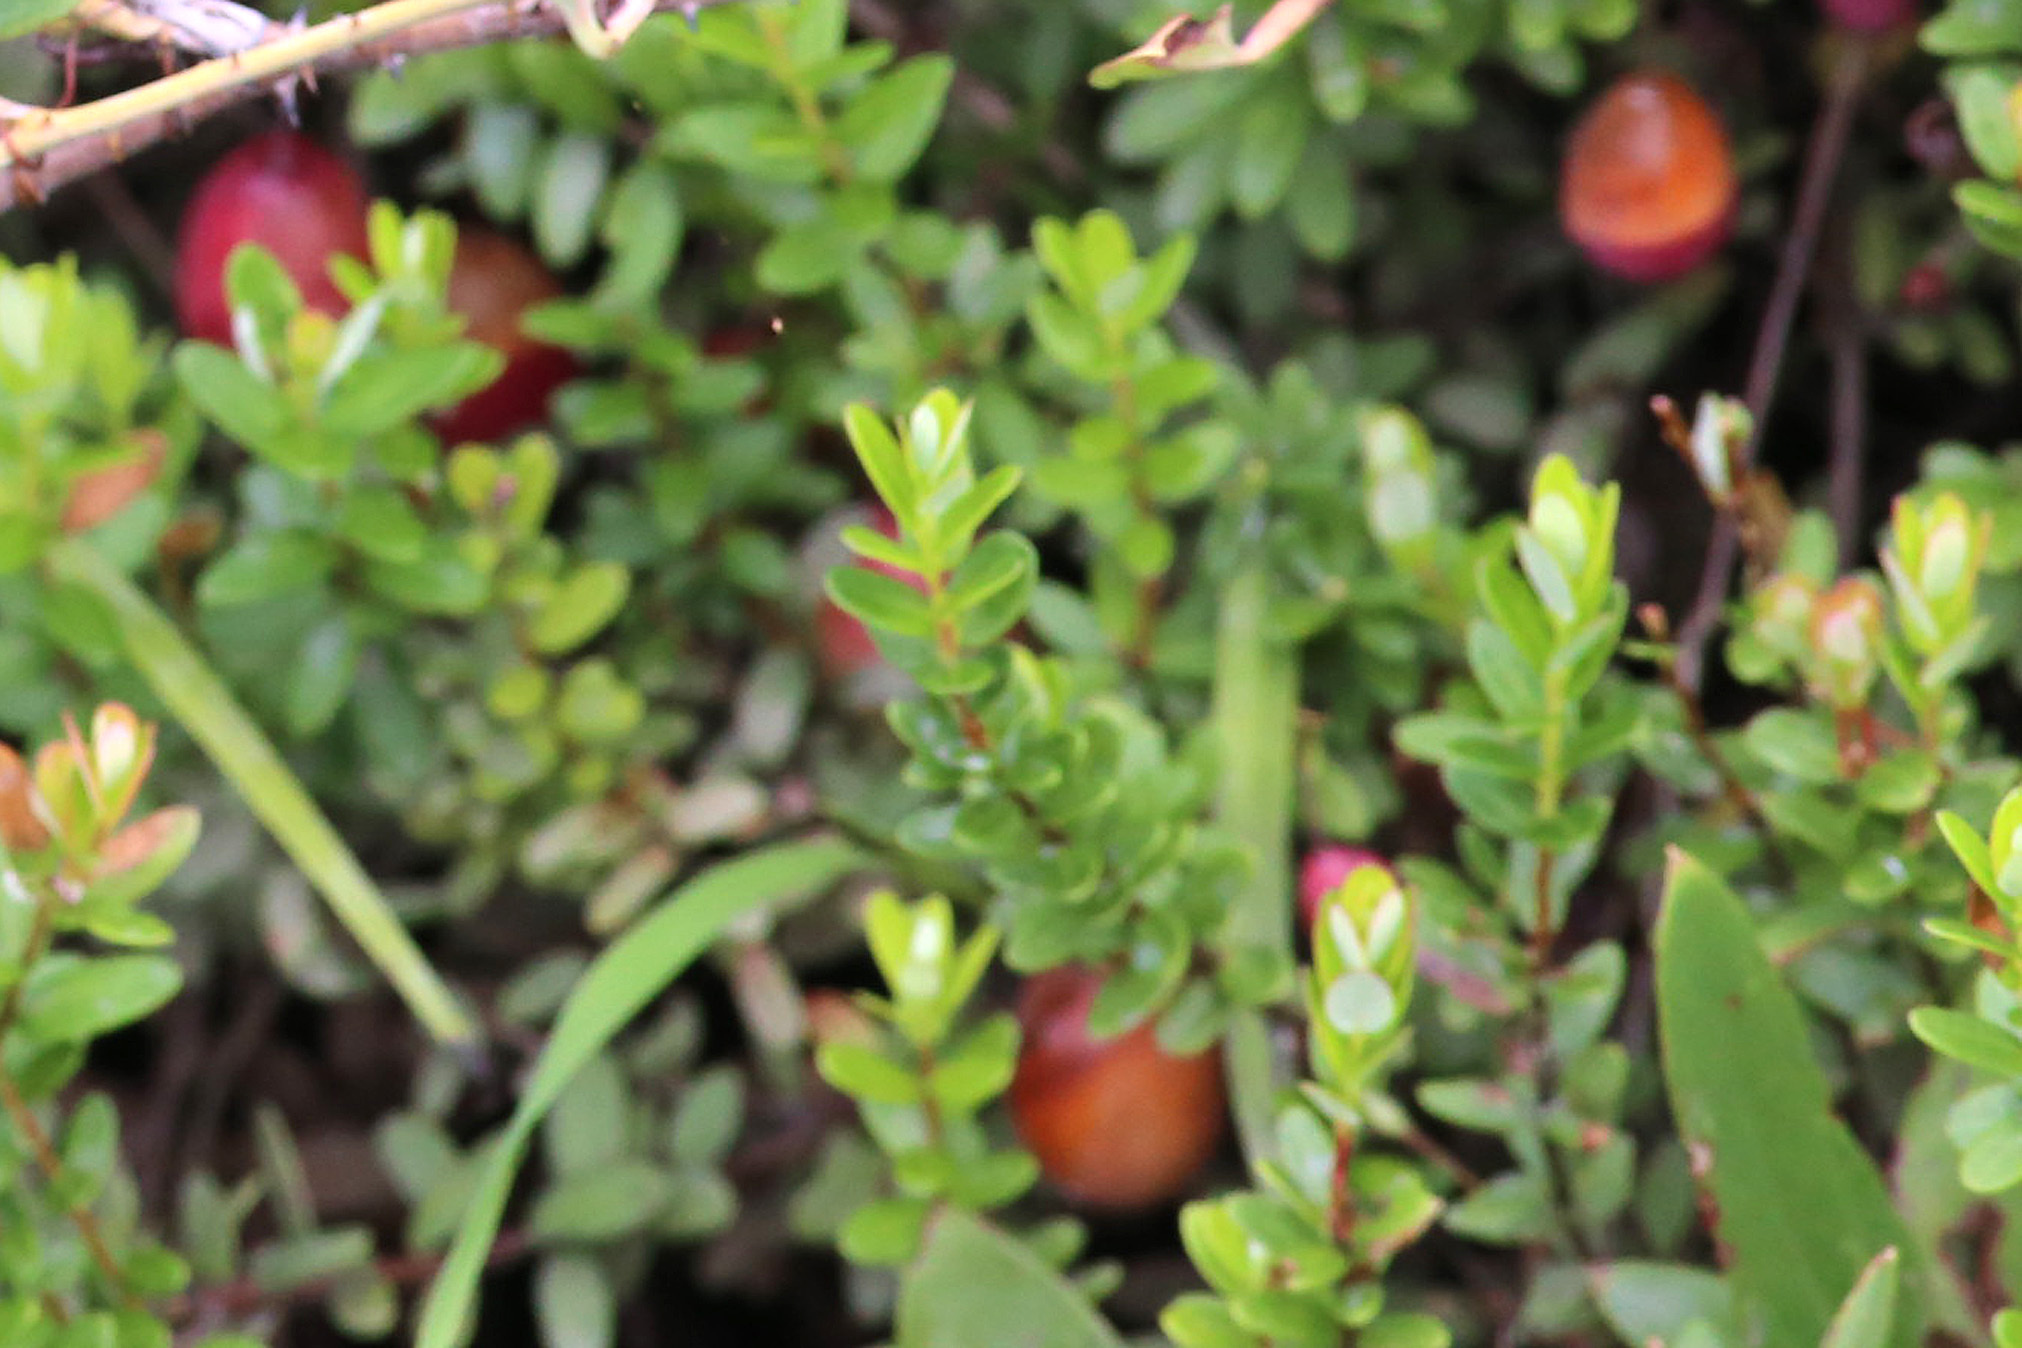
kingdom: Plantae
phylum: Tracheophyta
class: Magnoliopsida
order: Ericales
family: Ericaceae
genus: Vaccinium
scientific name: Vaccinium macrocarpon
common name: American cranberry
